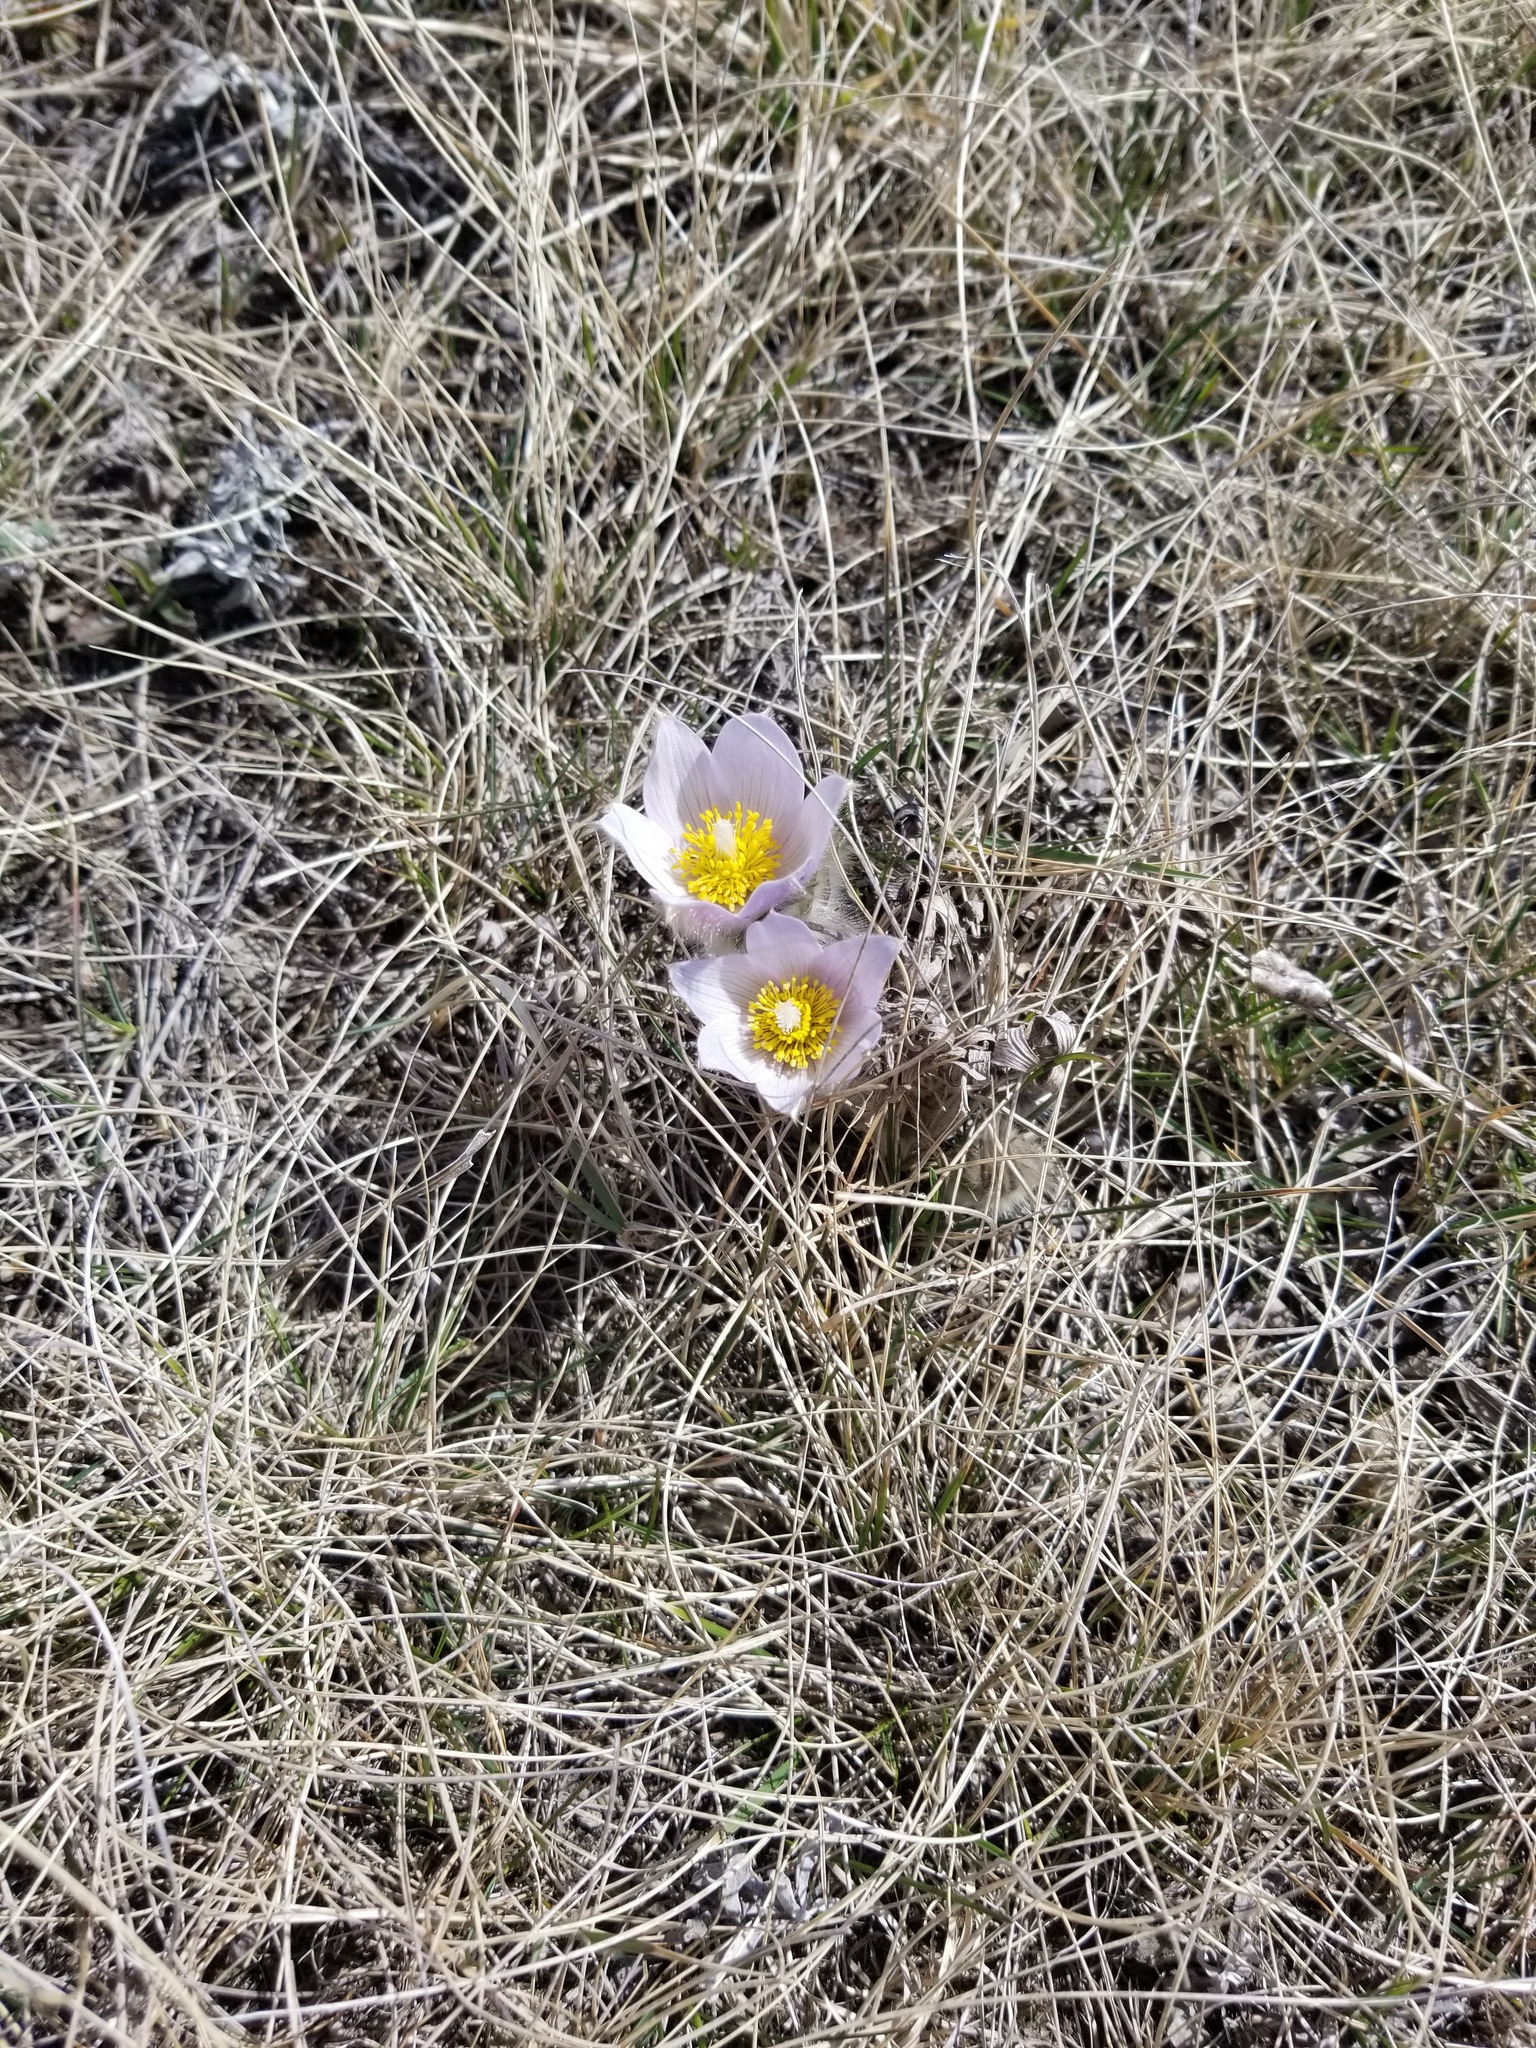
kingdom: Plantae
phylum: Tracheophyta
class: Magnoliopsida
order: Ranunculales
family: Ranunculaceae
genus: Pulsatilla
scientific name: Pulsatilla nuttalliana
